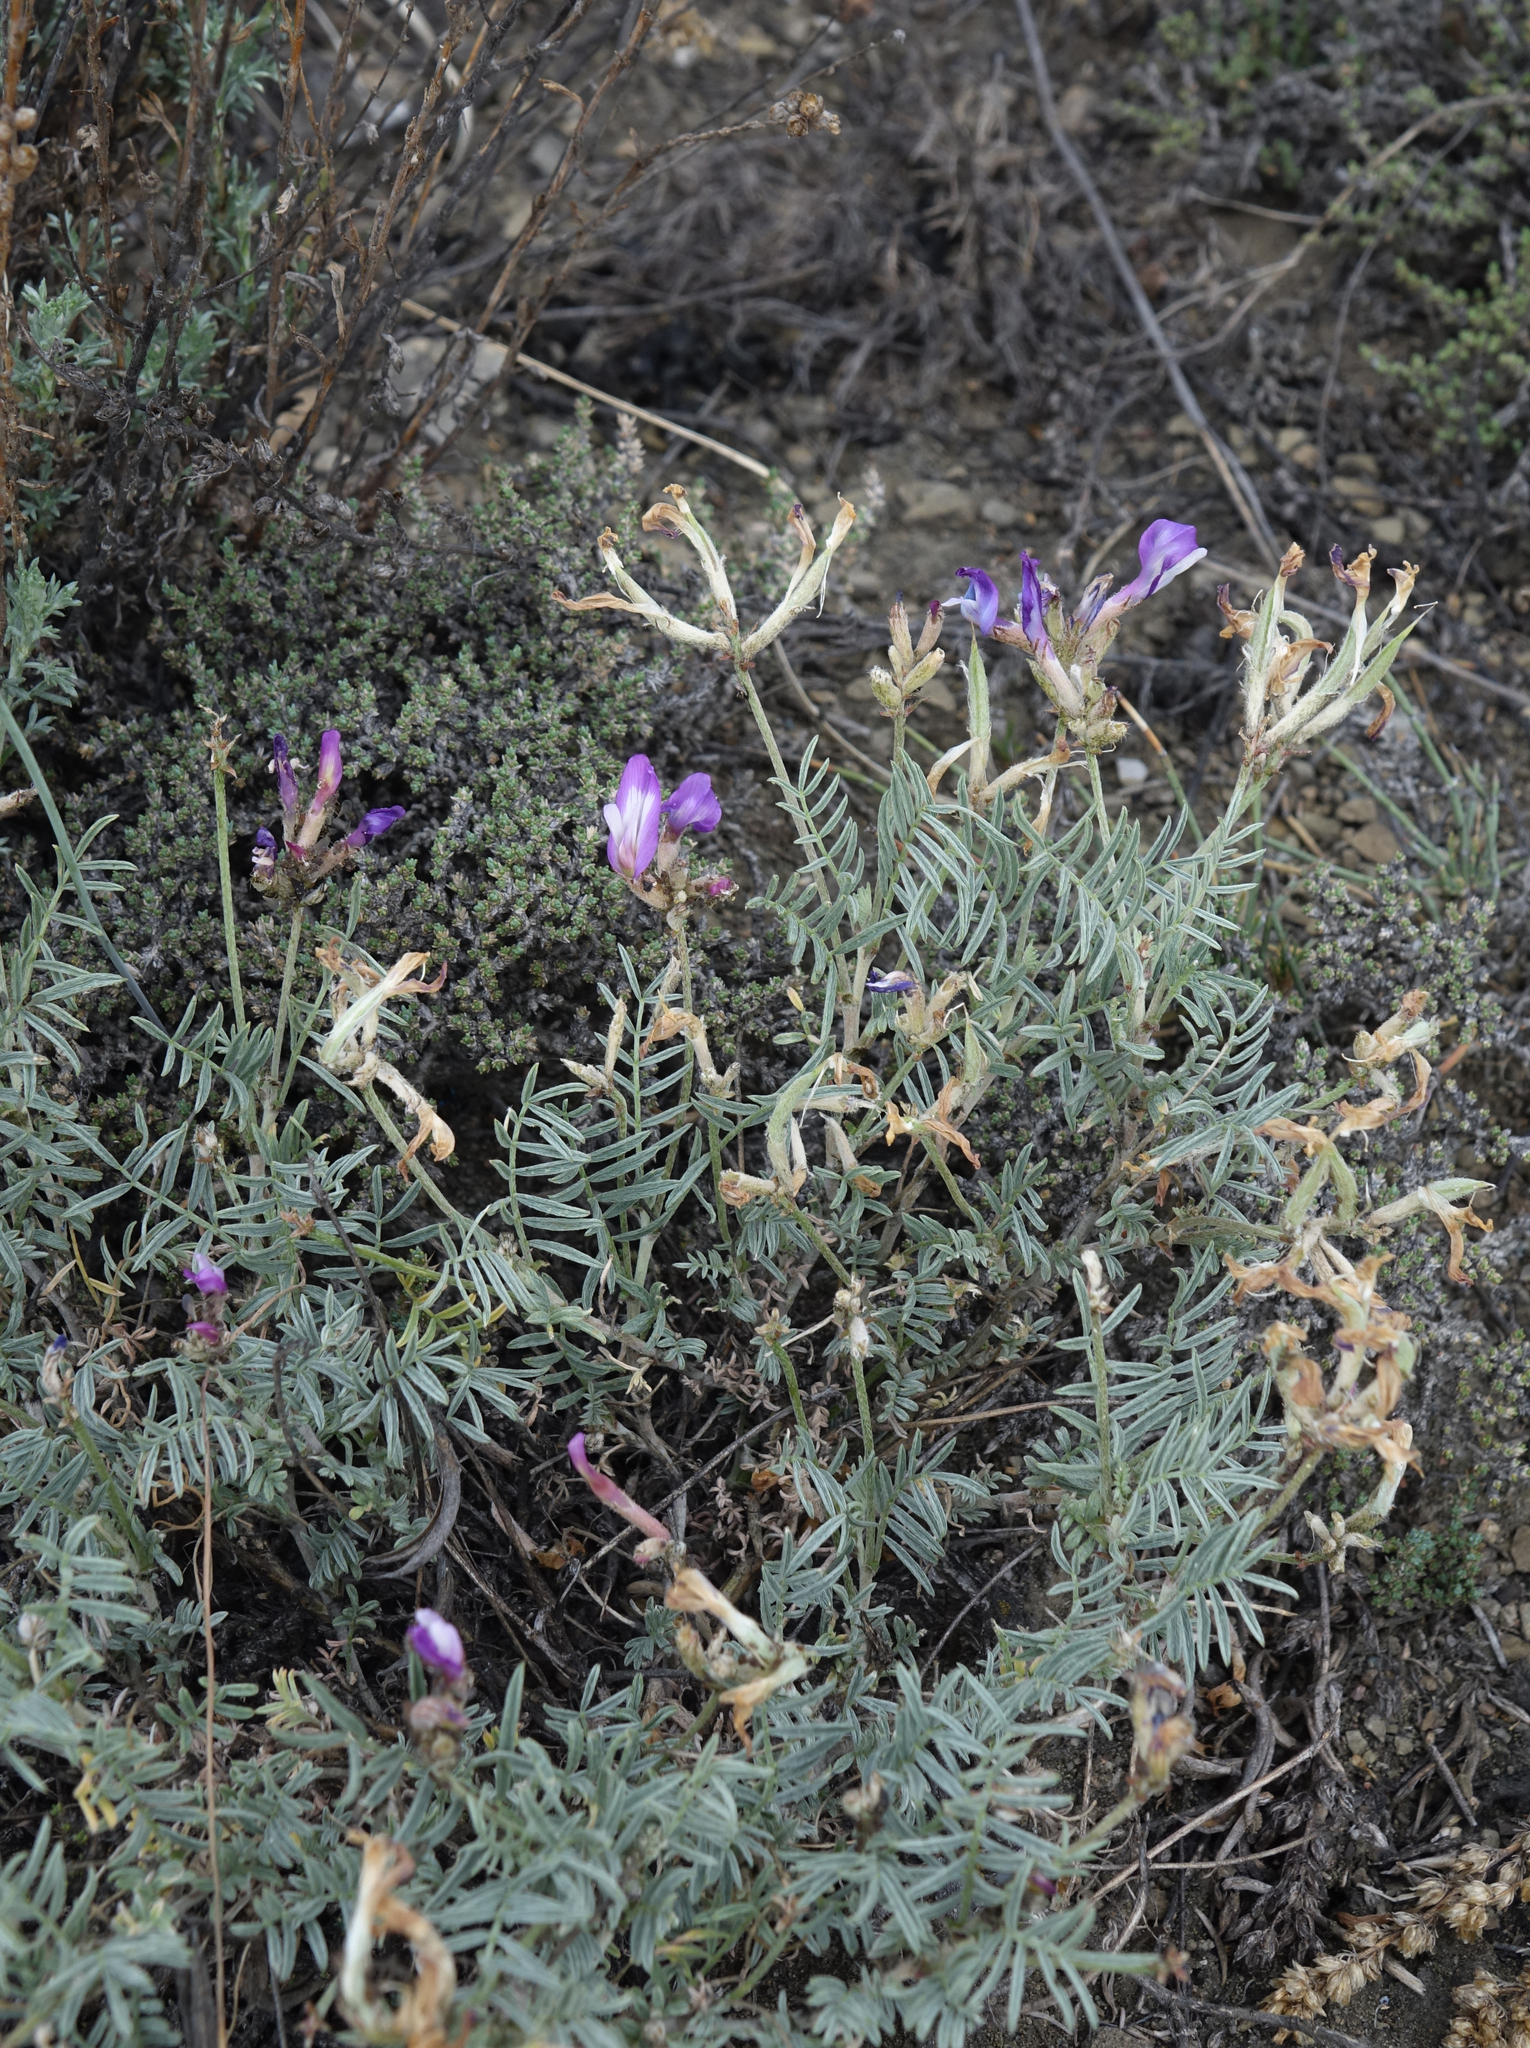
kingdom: Plantae
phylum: Tracheophyta
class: Magnoliopsida
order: Fabales
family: Fabaceae
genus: Astragalus
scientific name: Astragalus stenoceras
